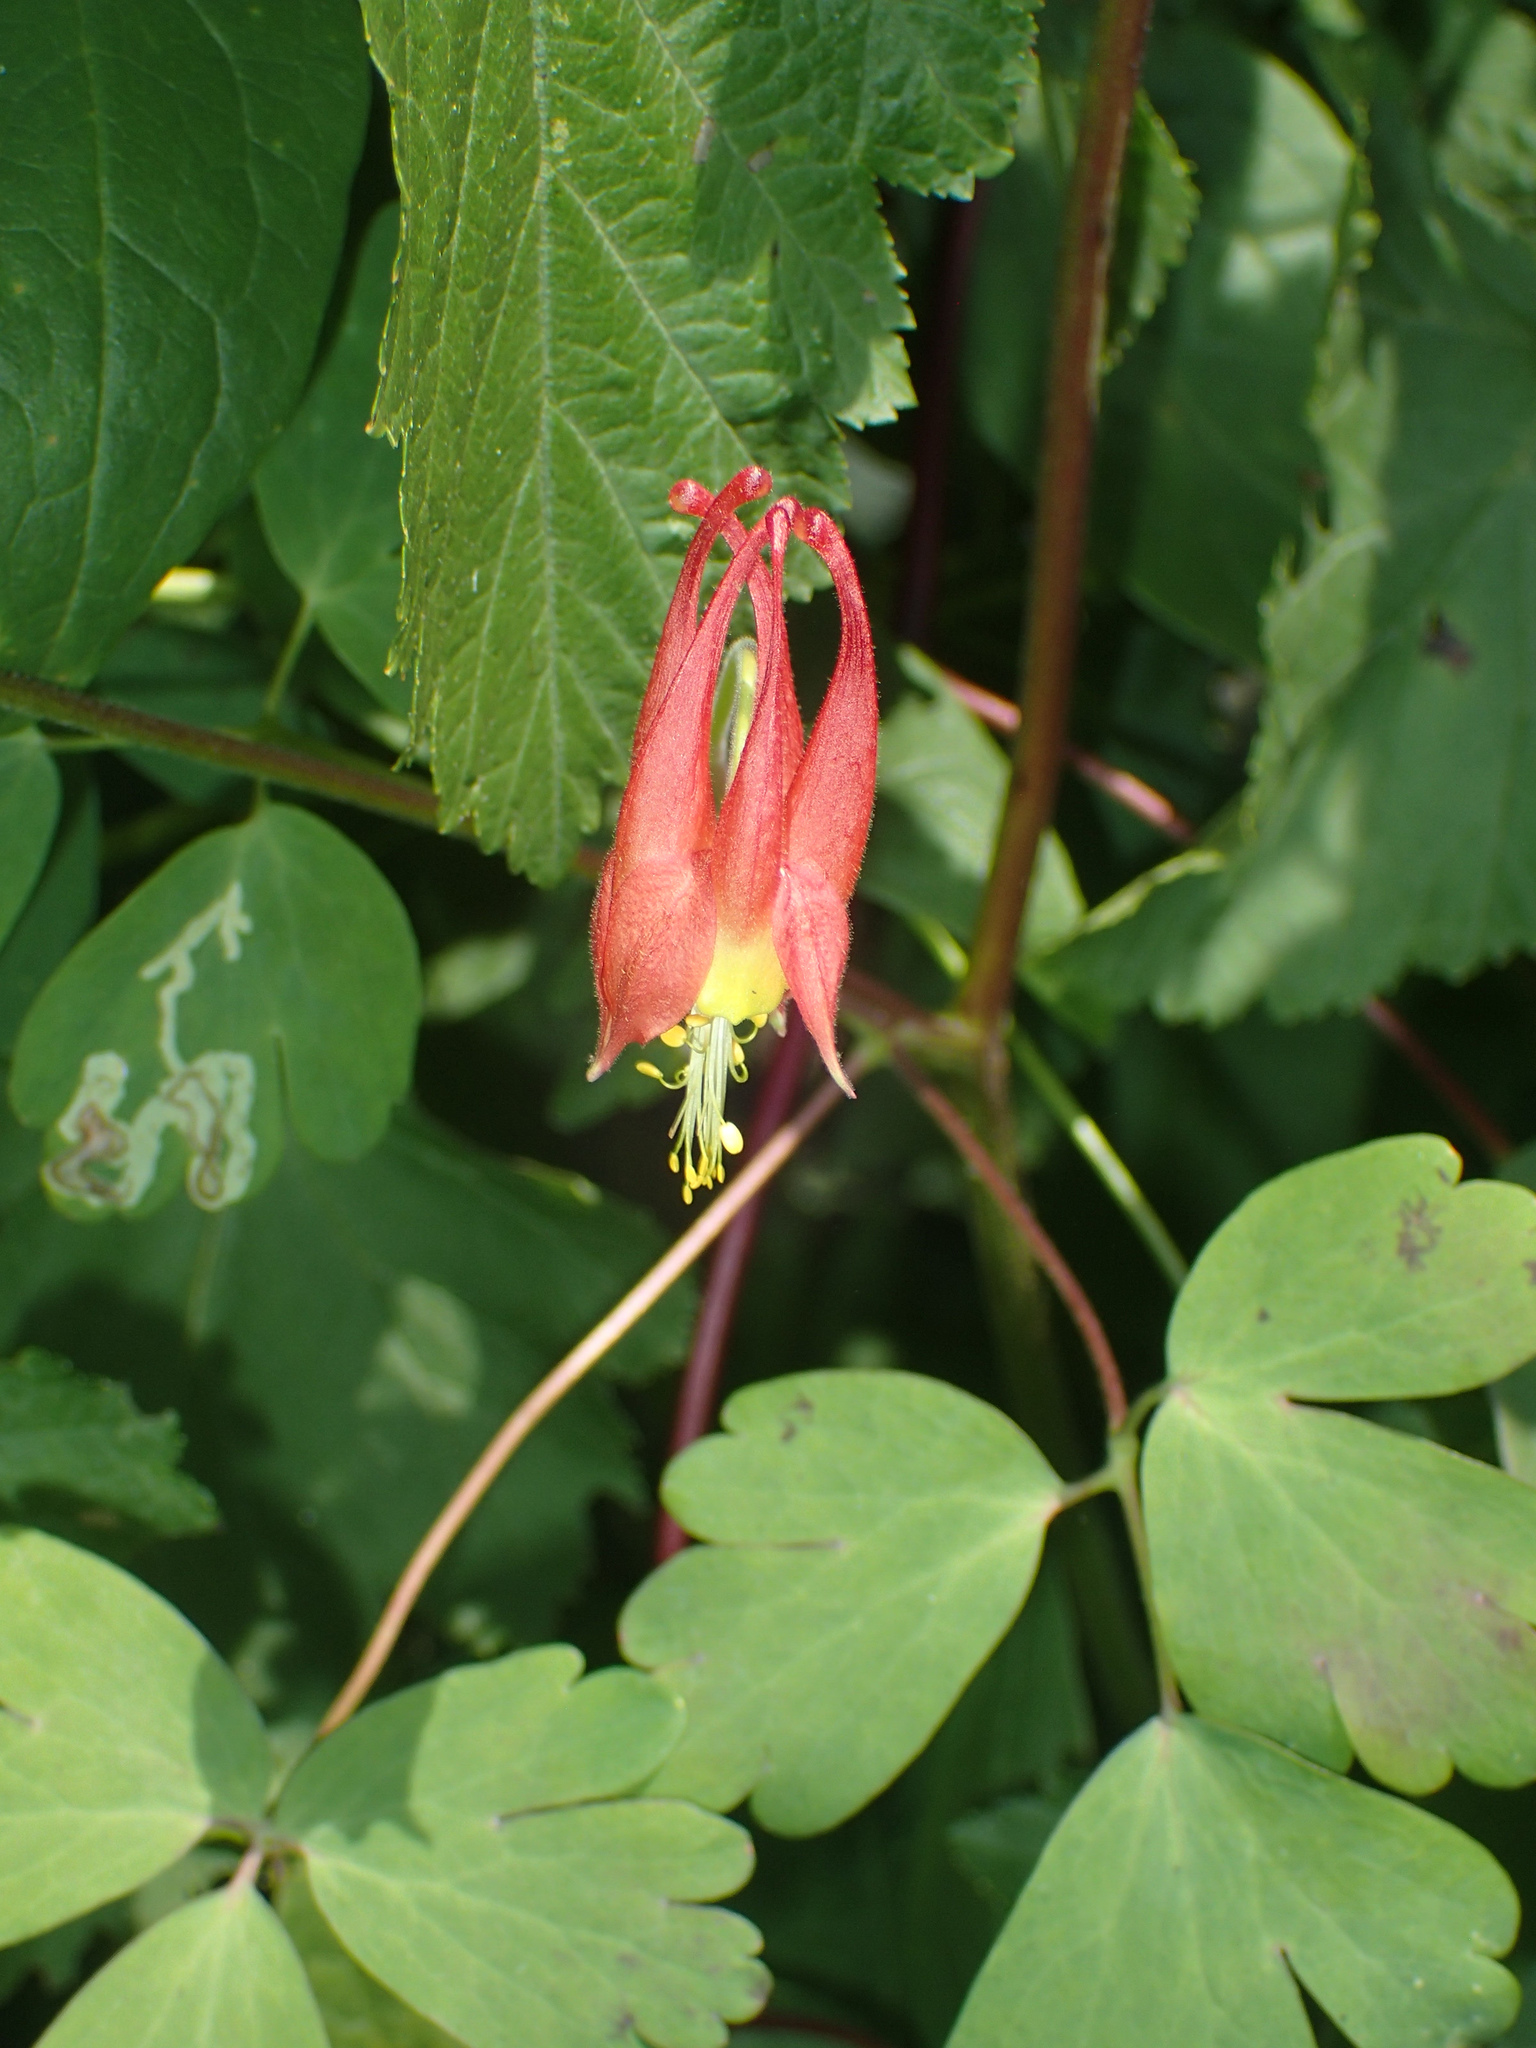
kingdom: Plantae
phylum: Tracheophyta
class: Magnoliopsida
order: Ranunculales
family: Ranunculaceae
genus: Aquilegia
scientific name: Aquilegia canadensis
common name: American columbine
